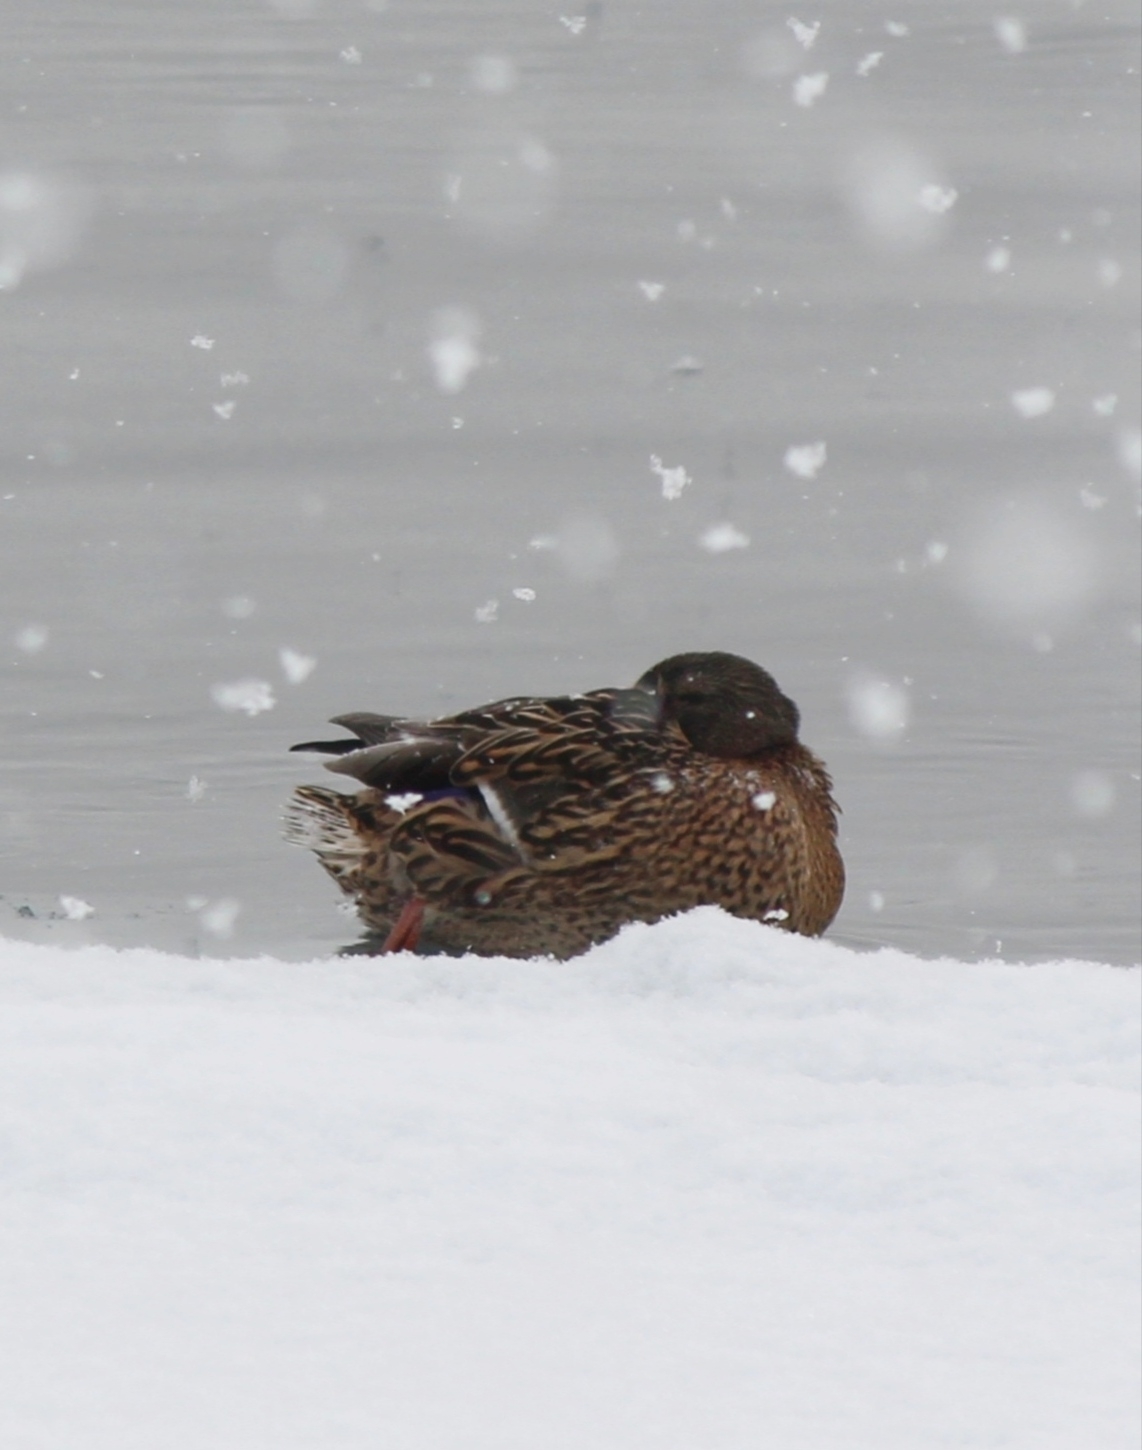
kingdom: Animalia
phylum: Chordata
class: Aves
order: Anseriformes
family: Anatidae
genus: Anas
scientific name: Anas platyrhynchos
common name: Mallard
